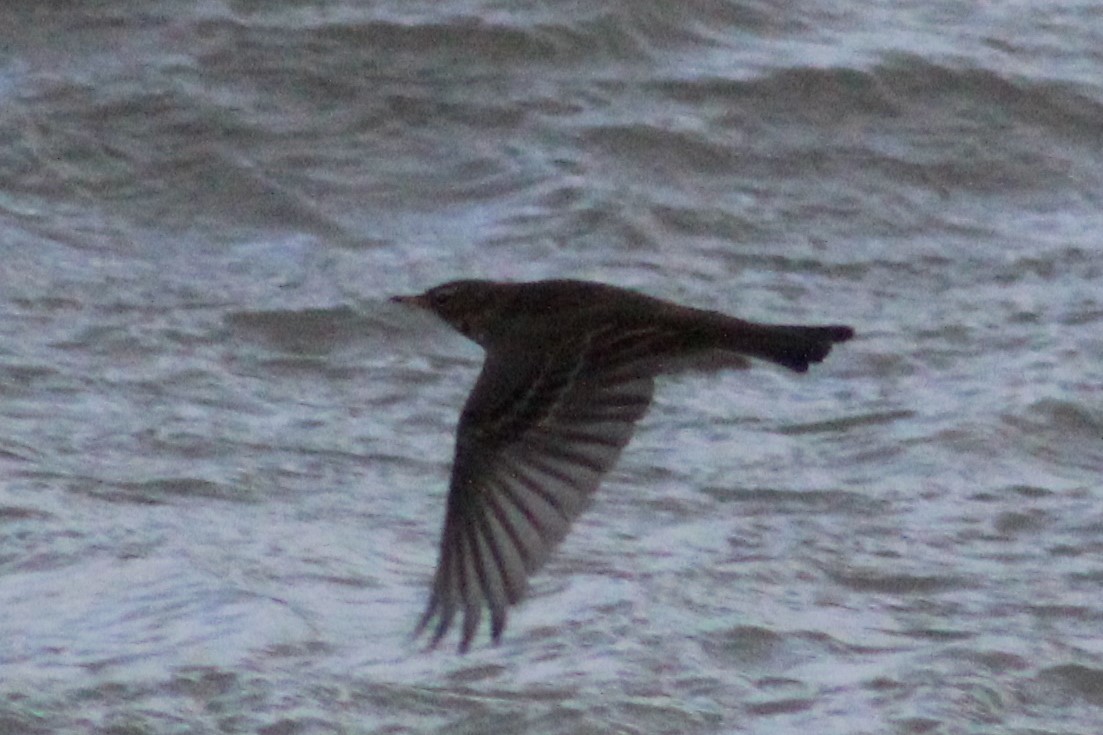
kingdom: Animalia
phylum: Chordata
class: Aves
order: Passeriformes
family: Motacillidae
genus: Anthus
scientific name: Anthus petrosus
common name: Eurasian rock pipit
